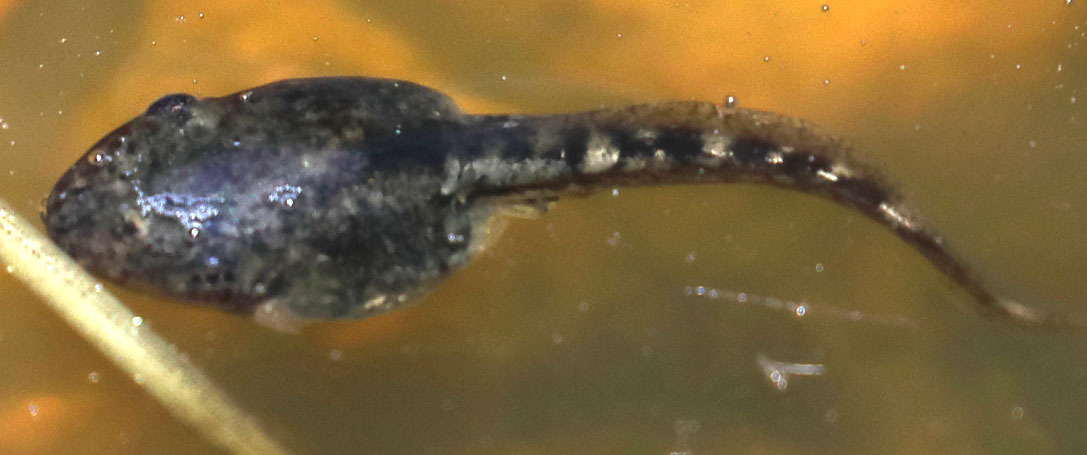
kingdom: Animalia
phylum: Chordata
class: Amphibia
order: Anura
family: Hylidae
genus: Pseudacris
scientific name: Pseudacris regilla
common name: Pacific chorus frog
